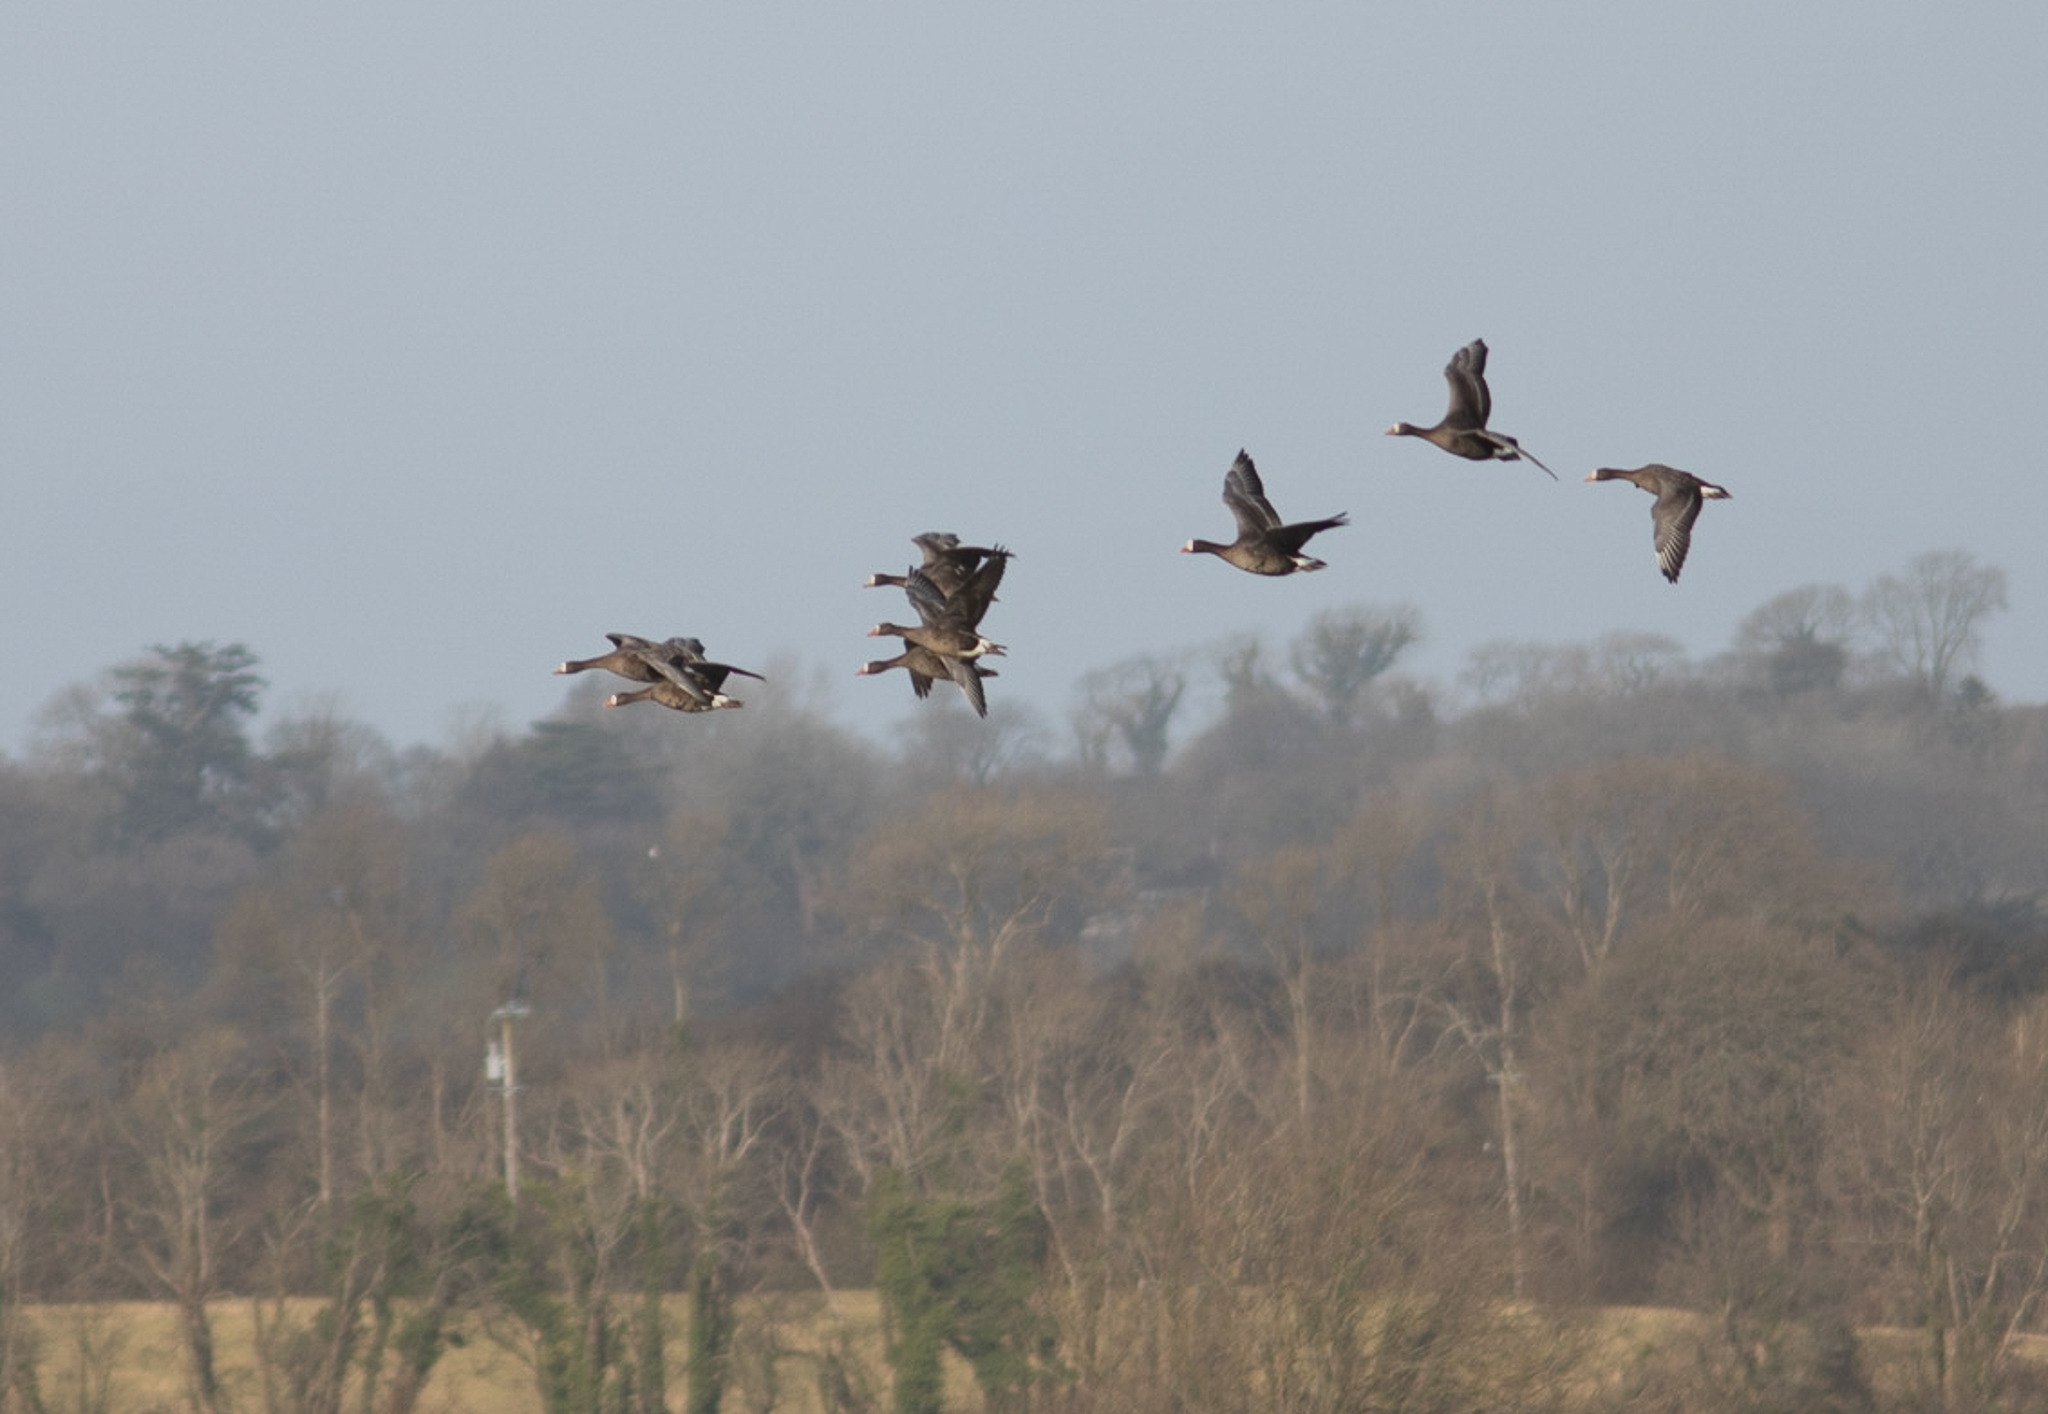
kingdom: Animalia
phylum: Chordata
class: Aves
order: Anseriformes
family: Anatidae
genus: Anser
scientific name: Anser albifrons
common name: Greater white-fronted goose
